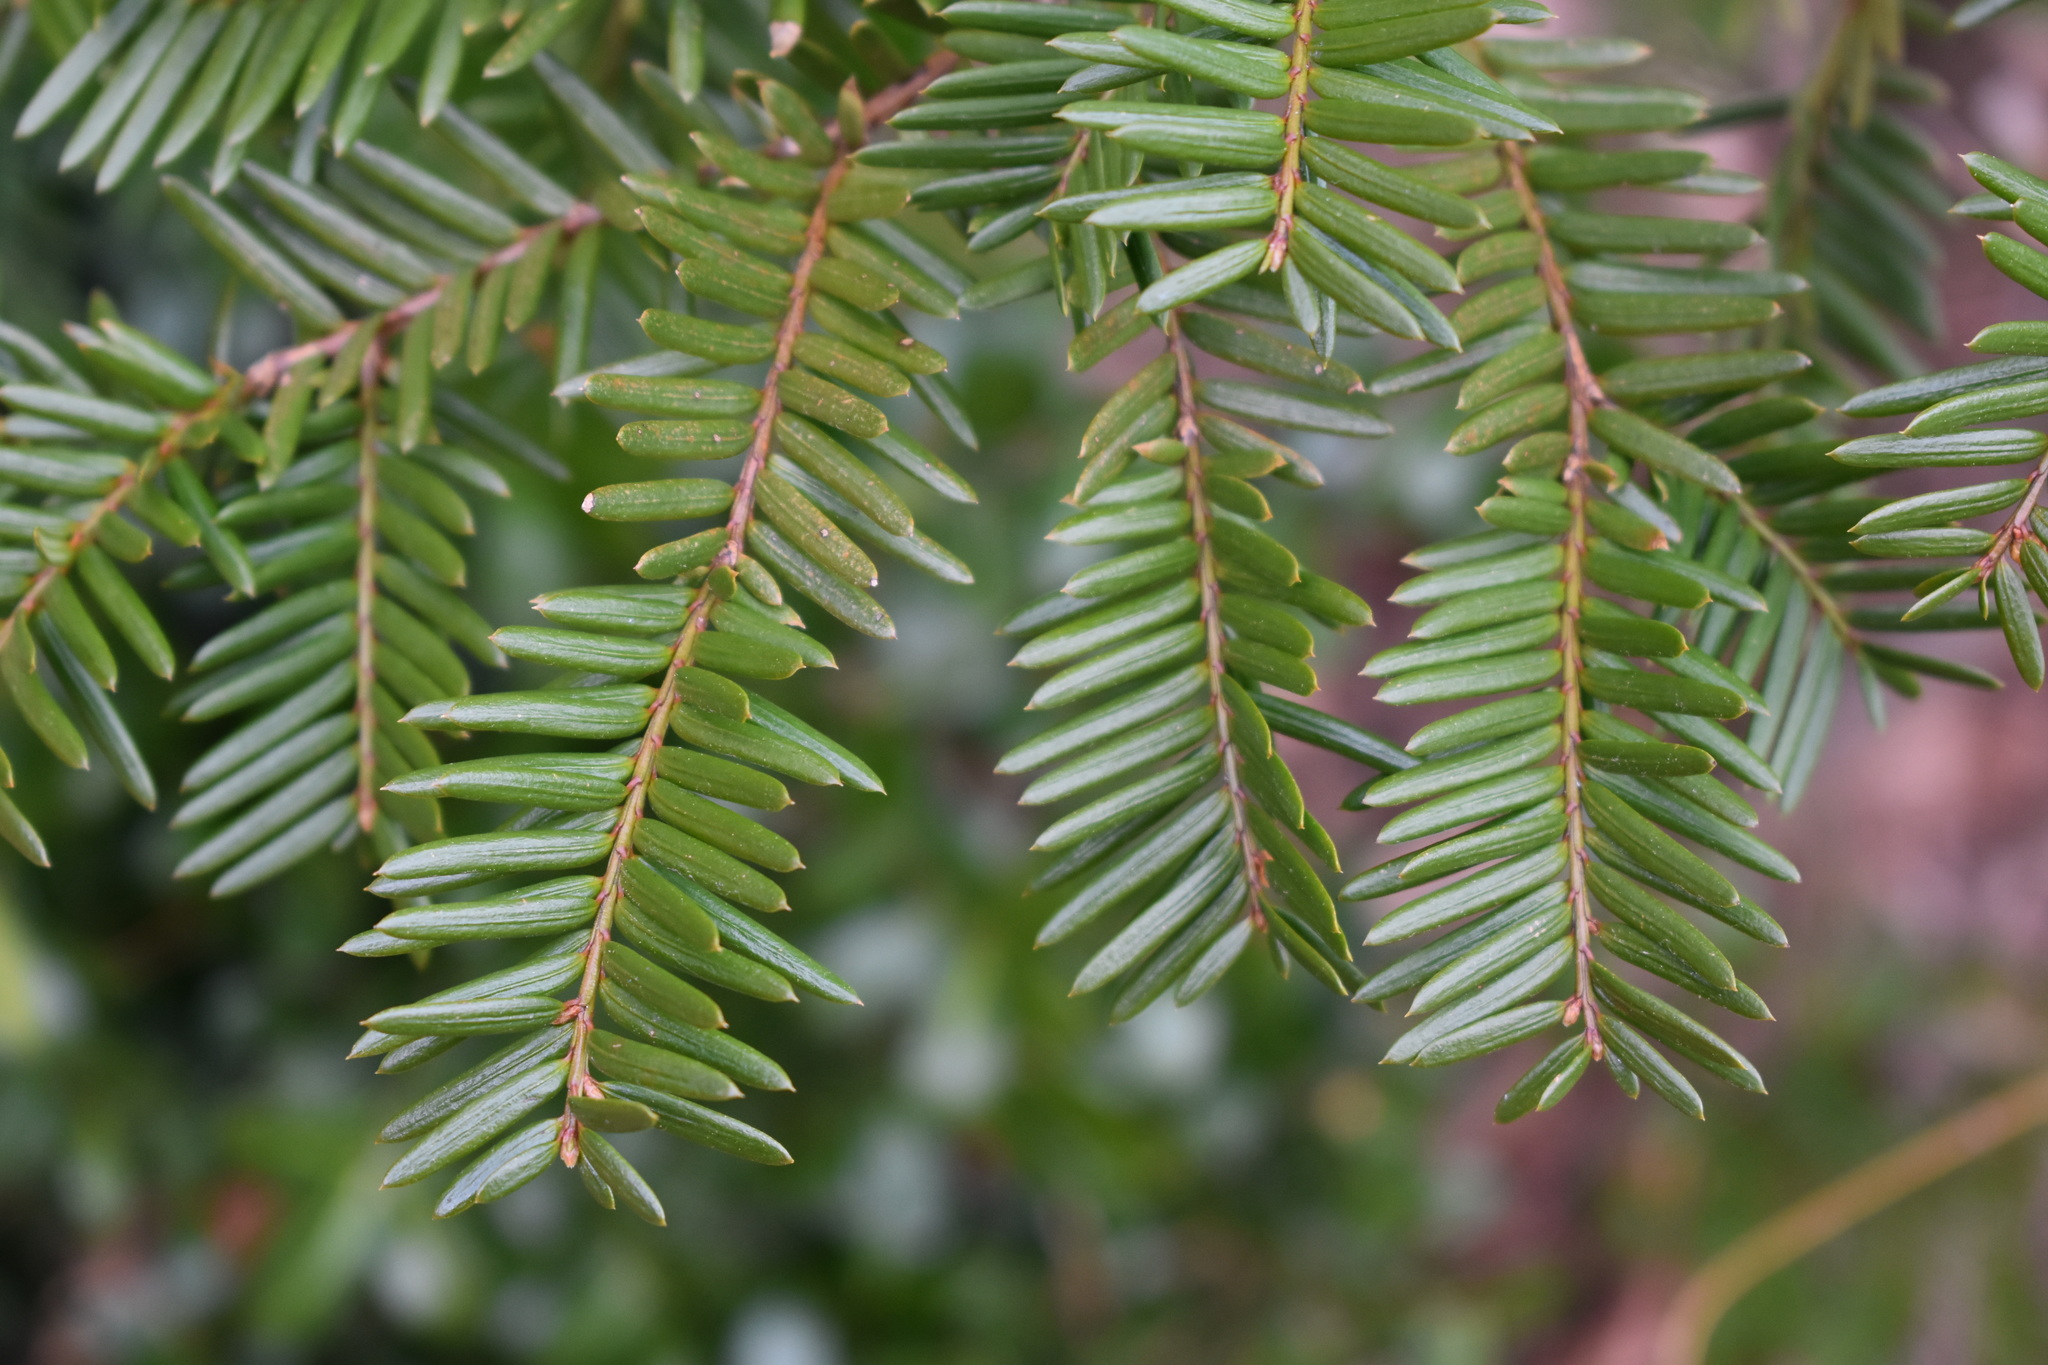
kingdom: Plantae
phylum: Tracheophyta
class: Pinopsida
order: Pinales
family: Pinaceae
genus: Tsuga
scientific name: Tsuga canadensis
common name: Eastern hemlock
